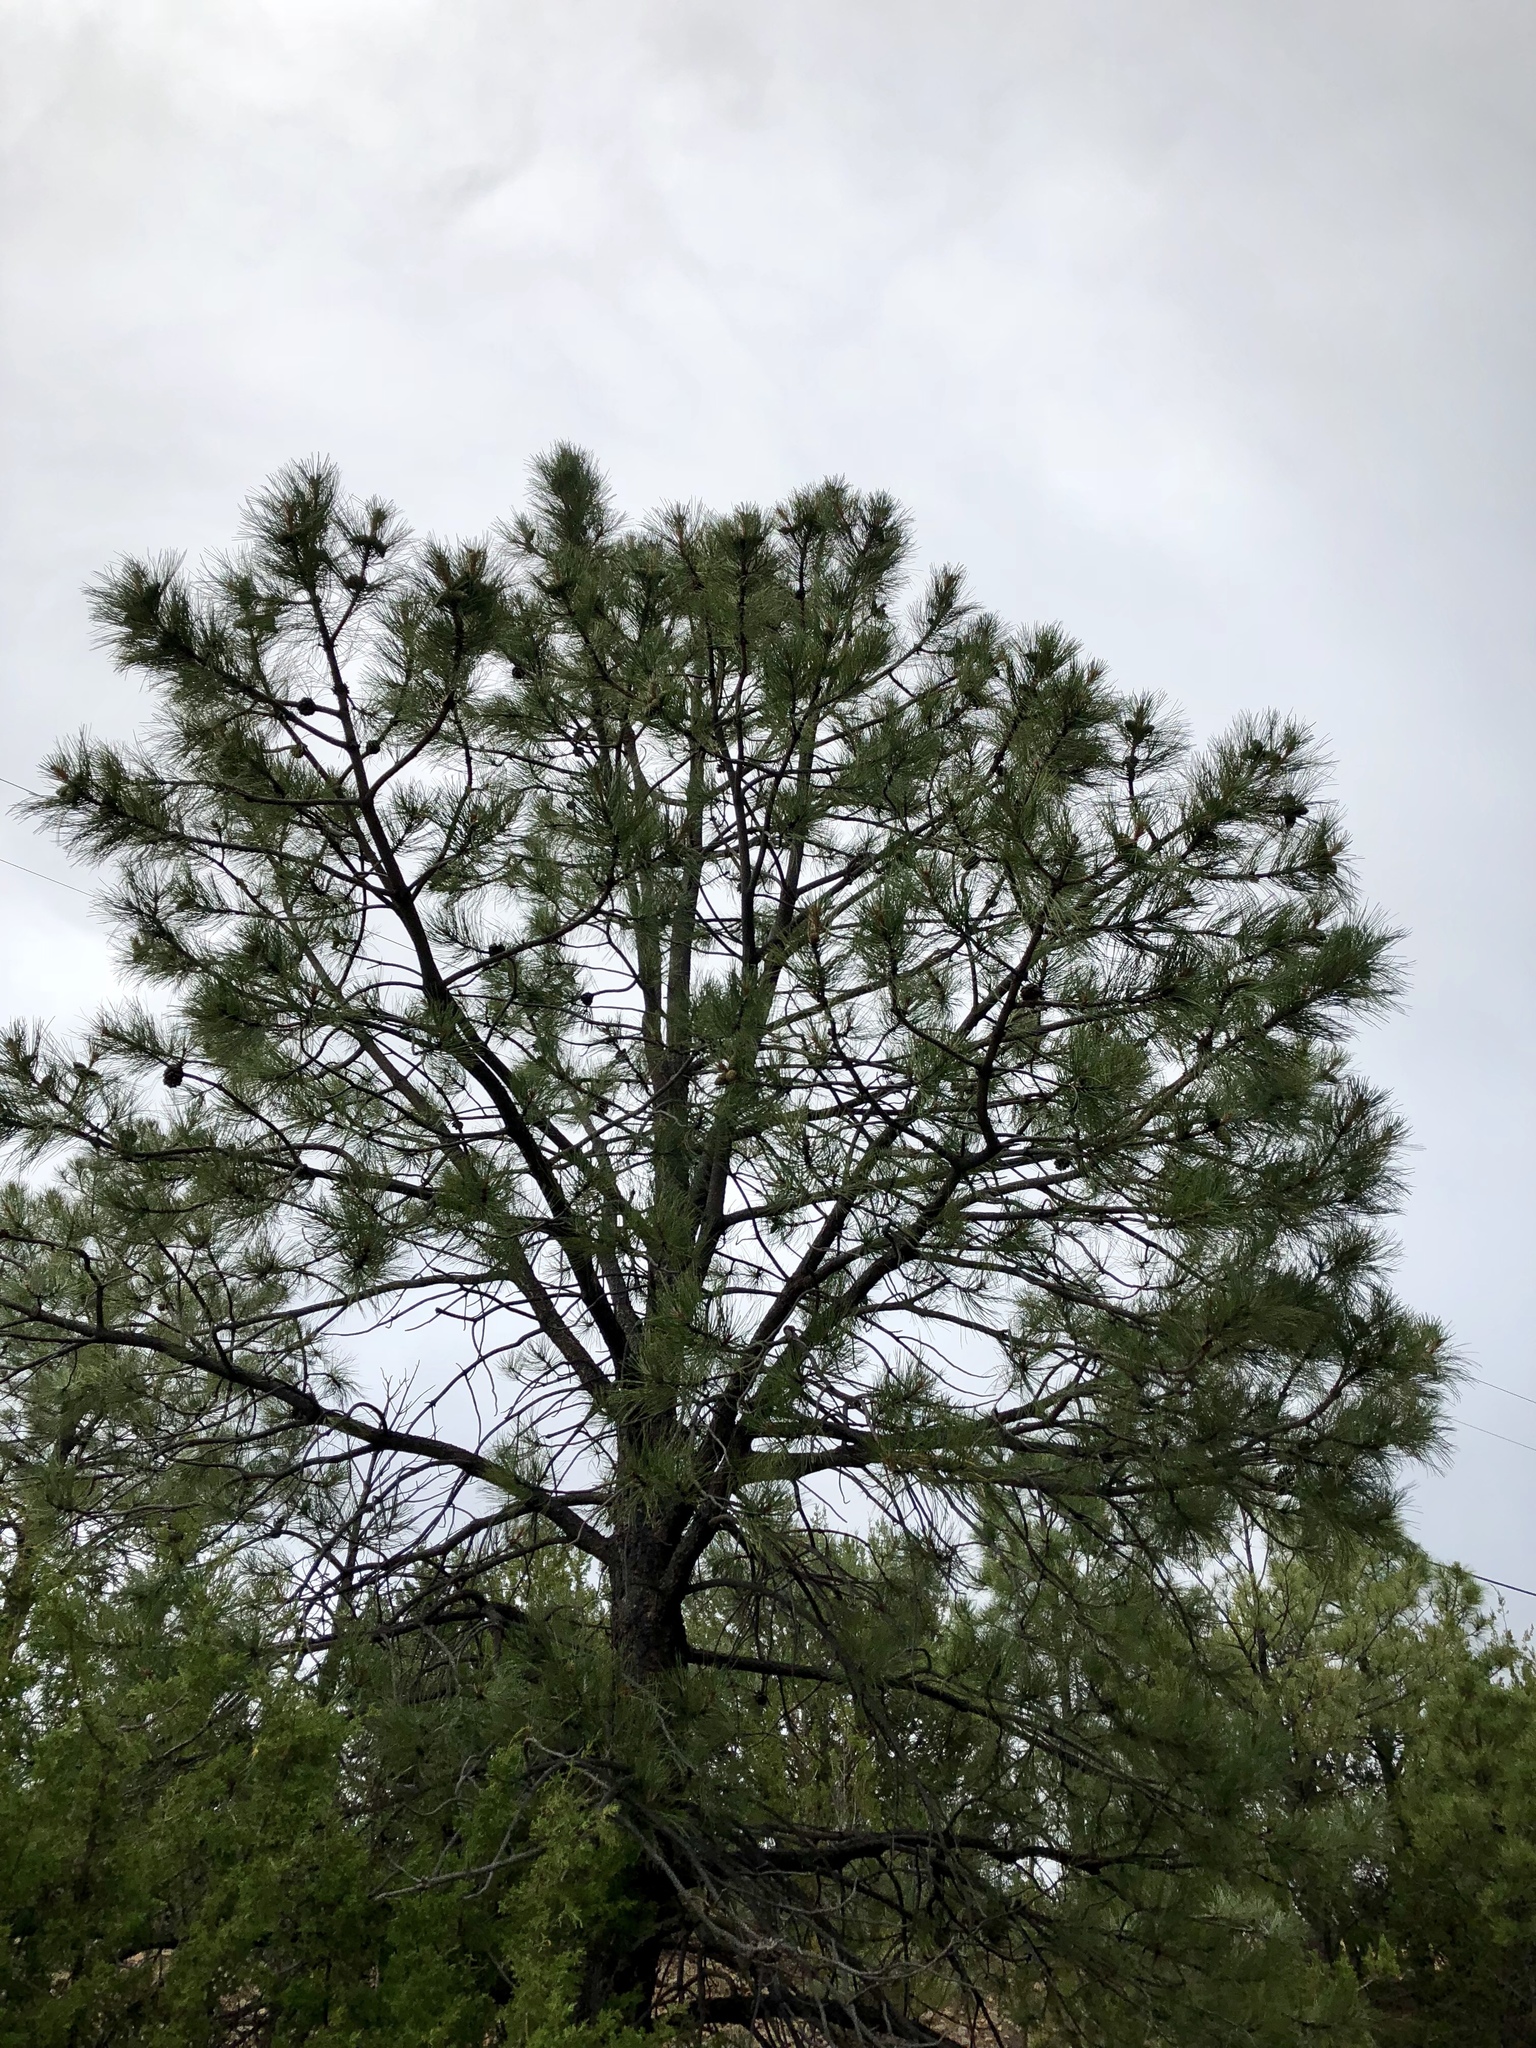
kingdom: Plantae
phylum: Tracheophyta
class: Pinopsida
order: Pinales
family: Pinaceae
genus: Pinus
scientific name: Pinus ponderosa
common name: Western yellow-pine
